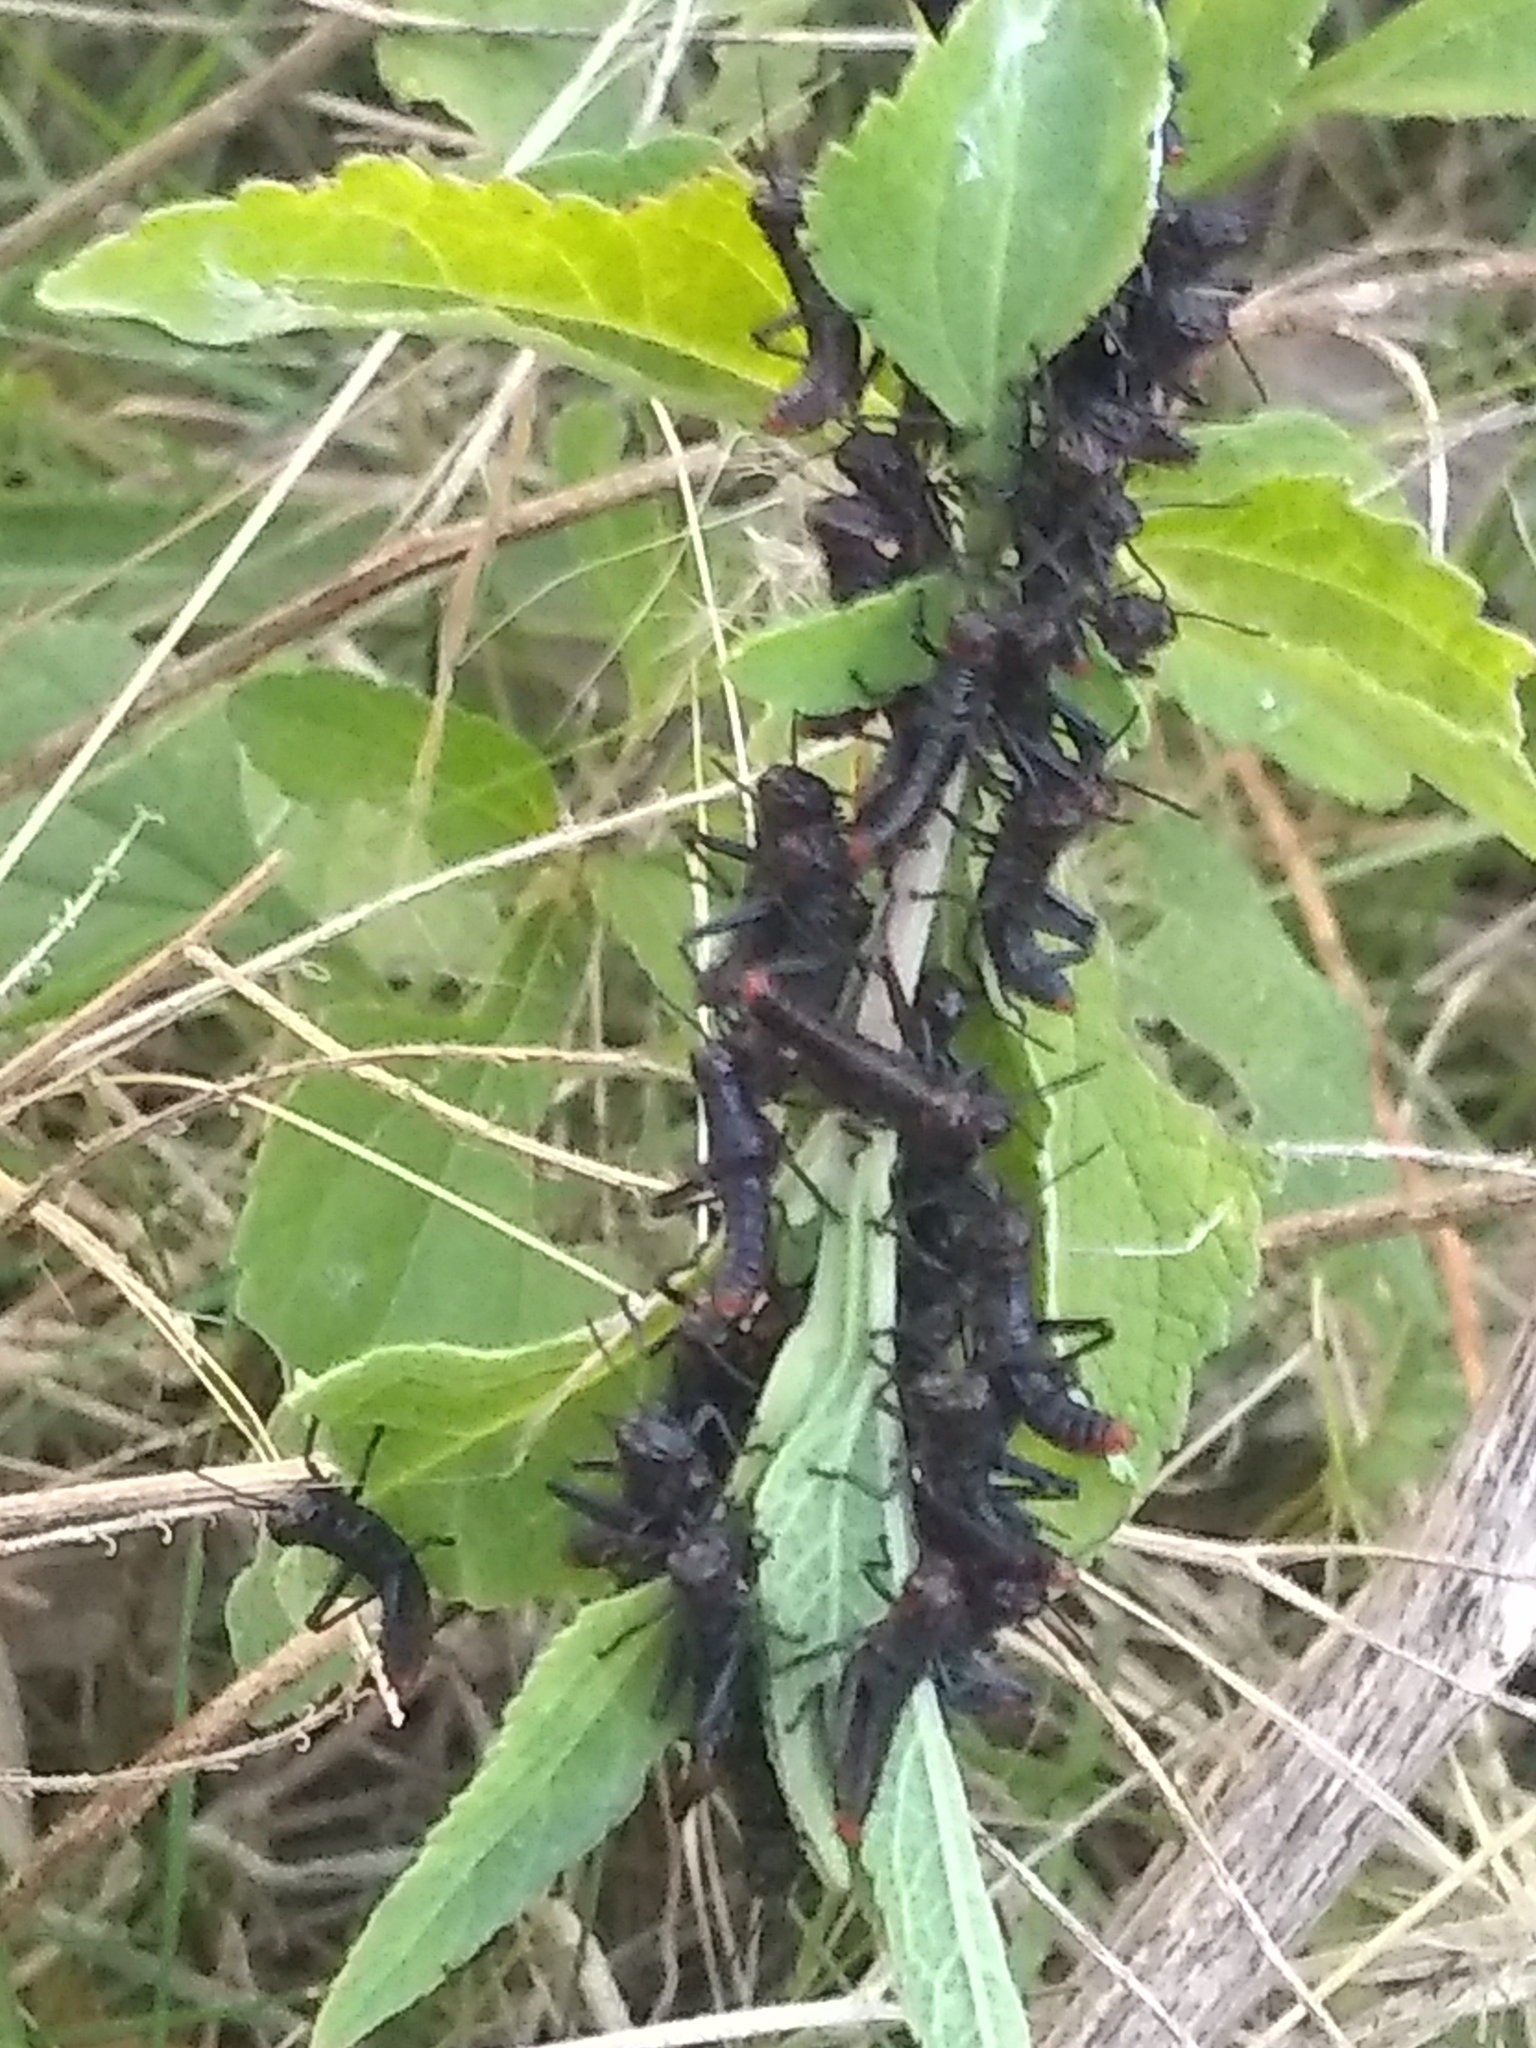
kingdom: Animalia
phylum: Arthropoda
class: Insecta
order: Orthoptera
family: Romaleidae
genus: Tropidacris
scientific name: Tropidacris collaris
